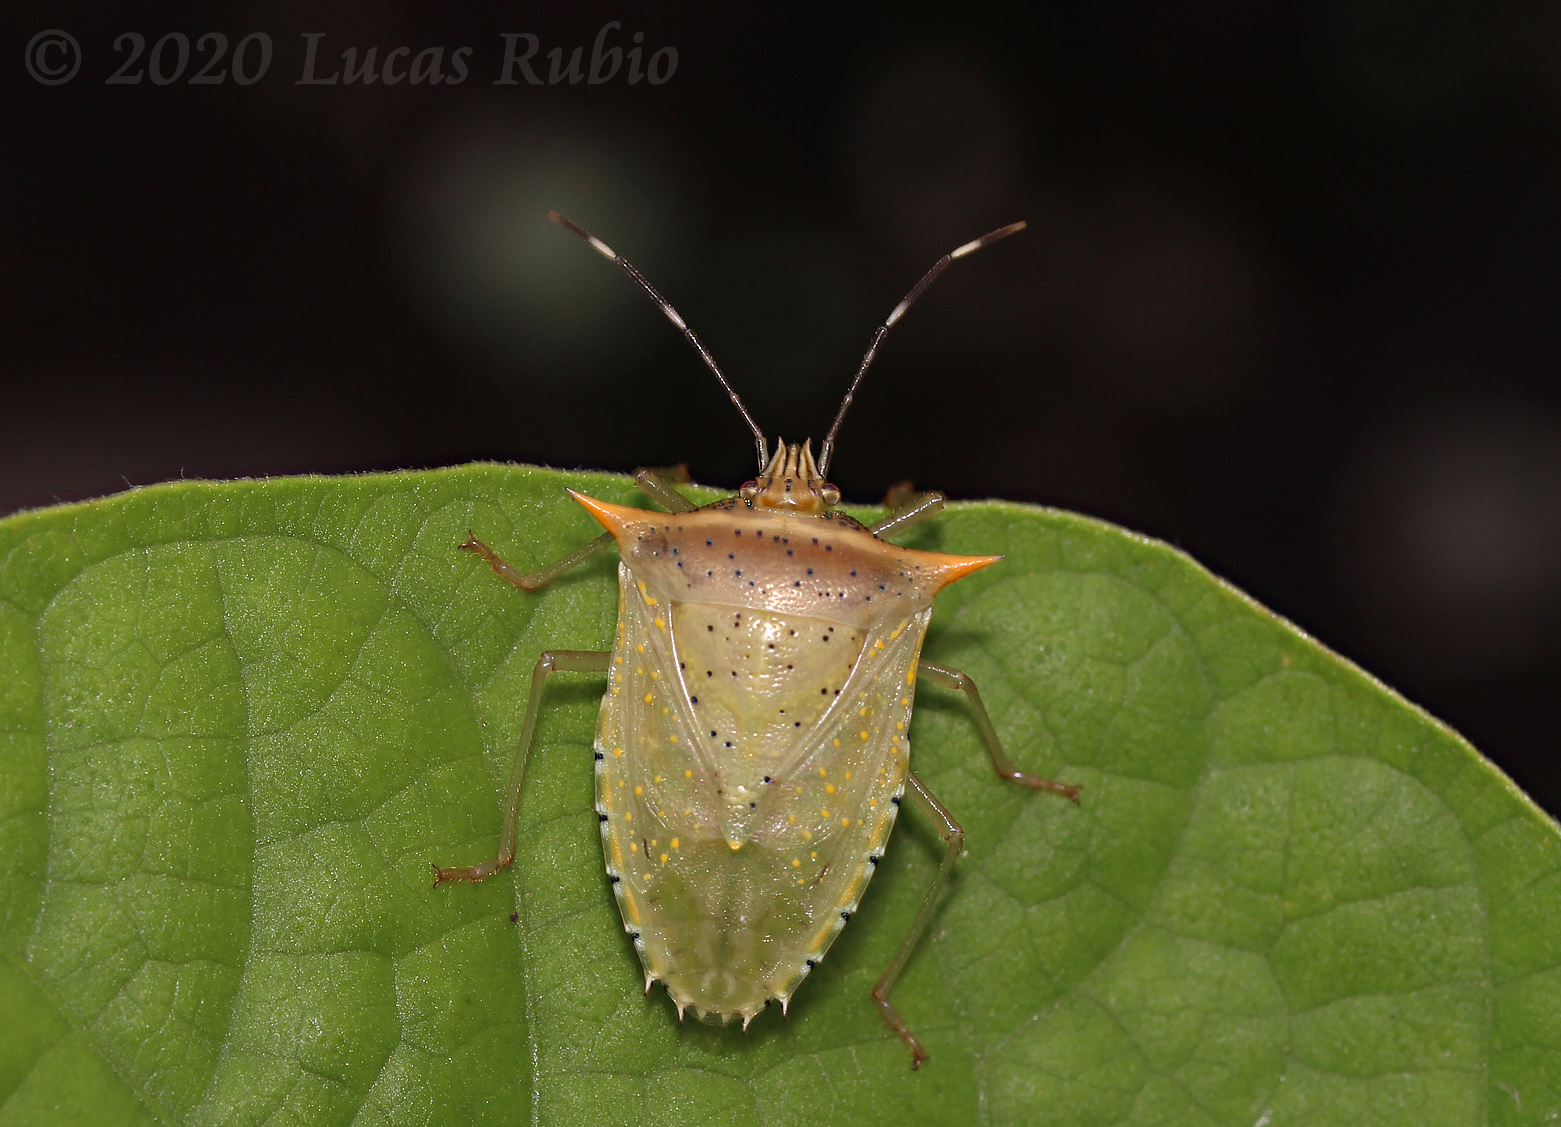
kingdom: Animalia
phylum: Arthropoda
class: Insecta
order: Hemiptera
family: Pentatomidae
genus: Arvelius
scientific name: Arvelius albopunctatus
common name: Tomato stink bug
